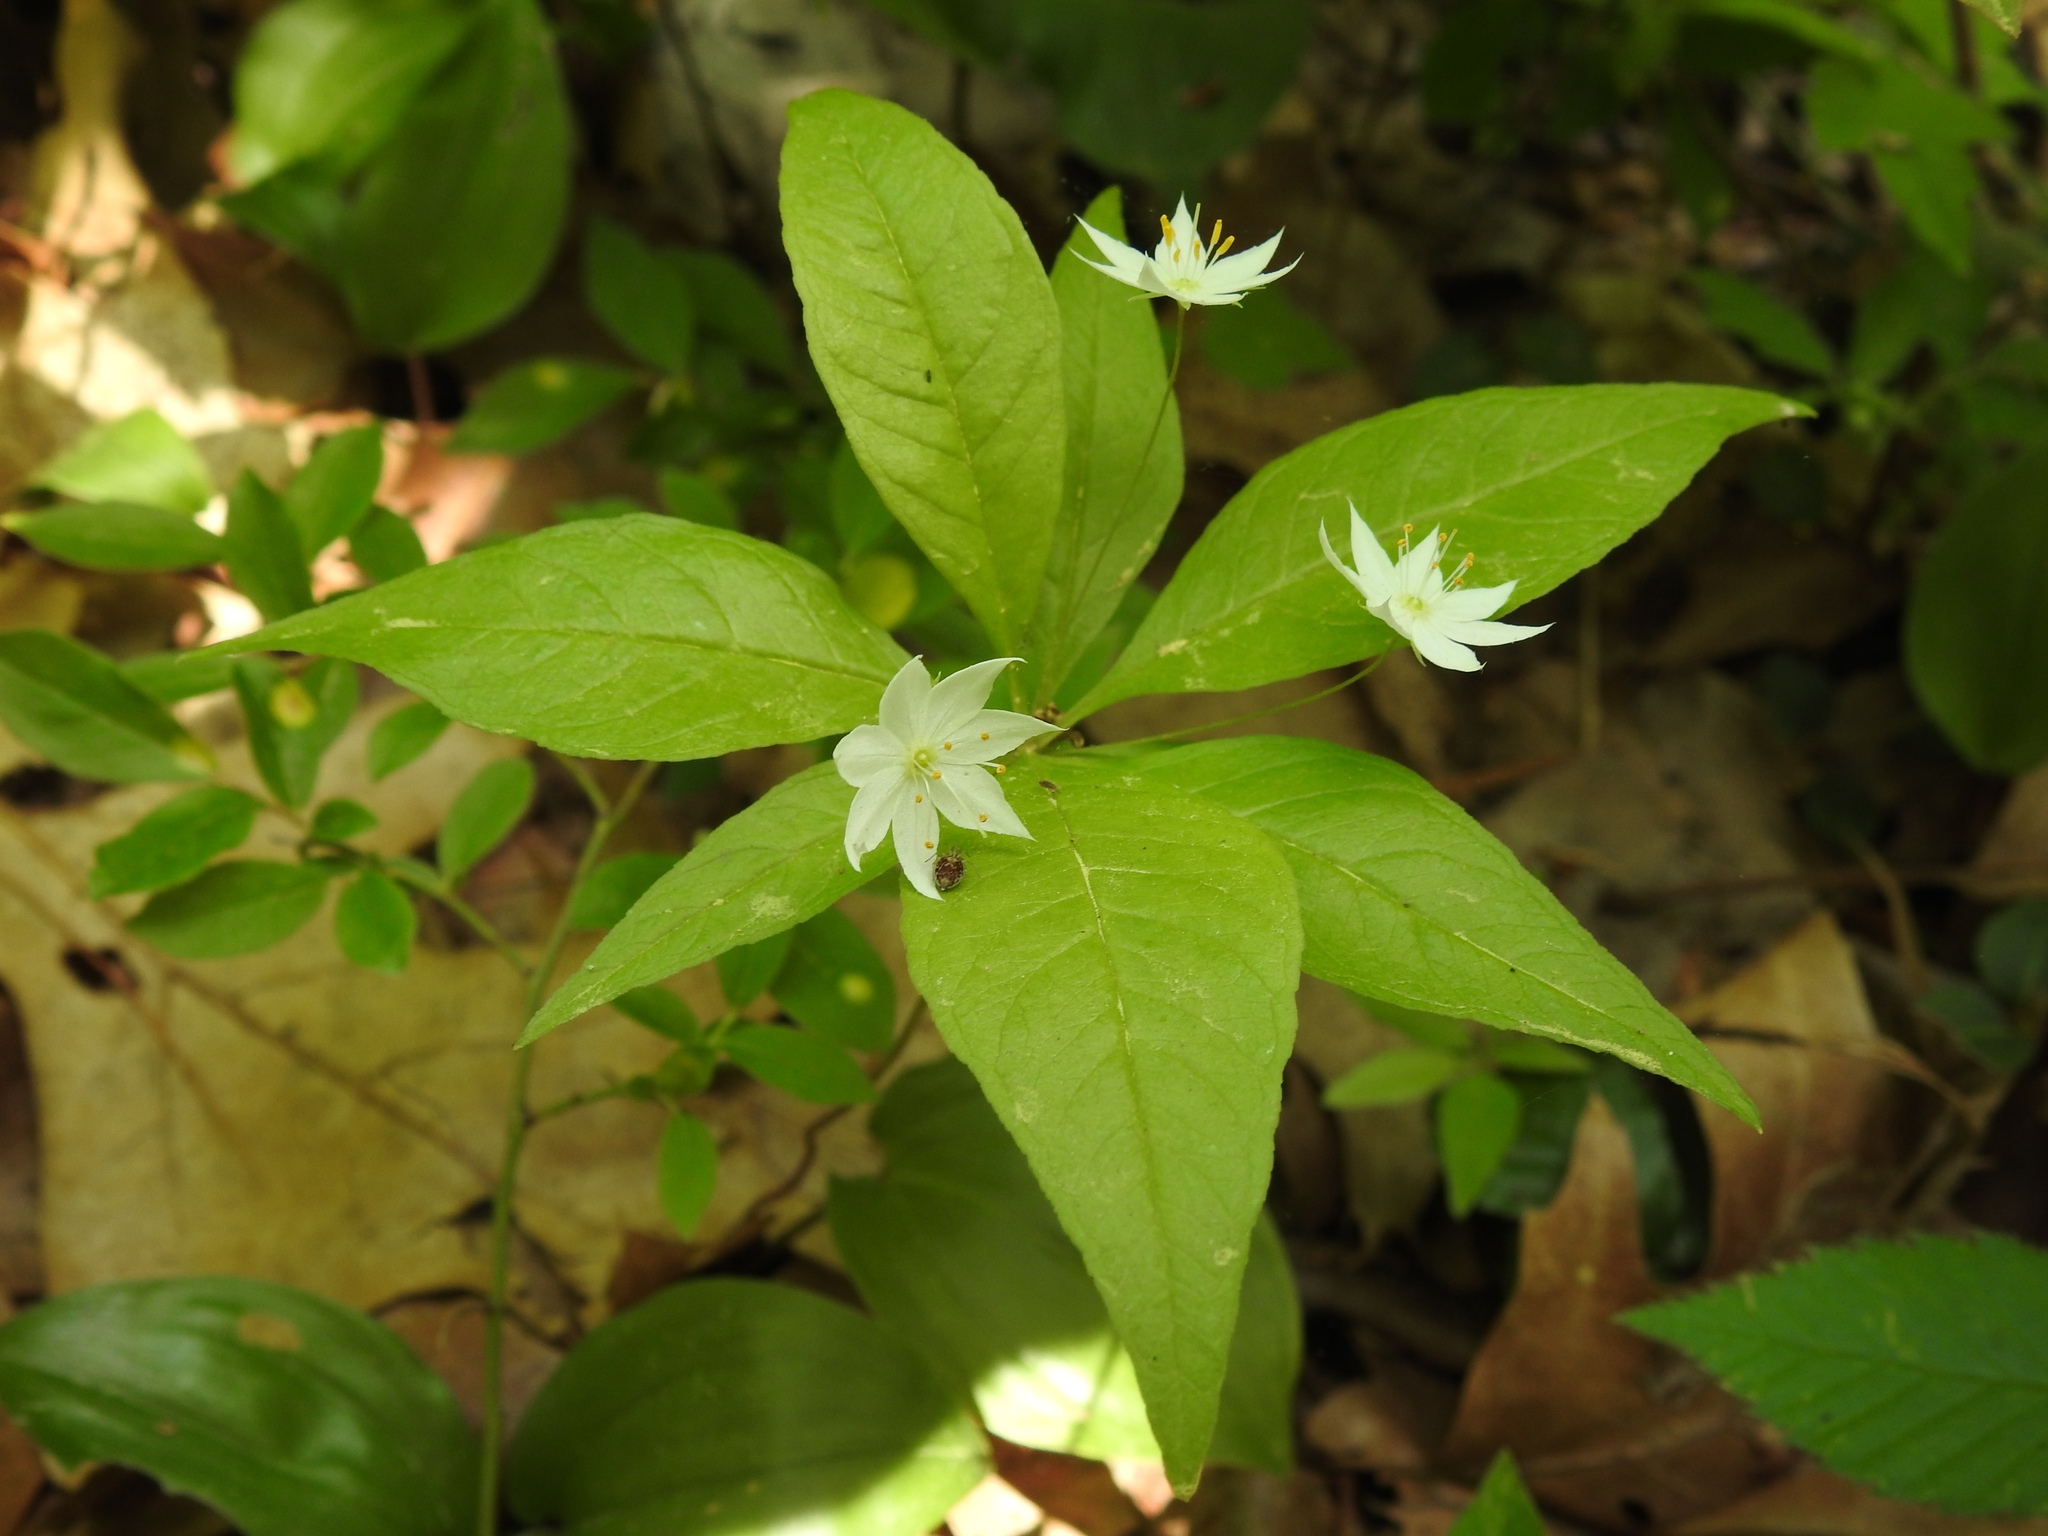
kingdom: Plantae
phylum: Tracheophyta
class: Magnoliopsida
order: Ericales
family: Primulaceae
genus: Lysimachia
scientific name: Lysimachia borealis
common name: American starflower
